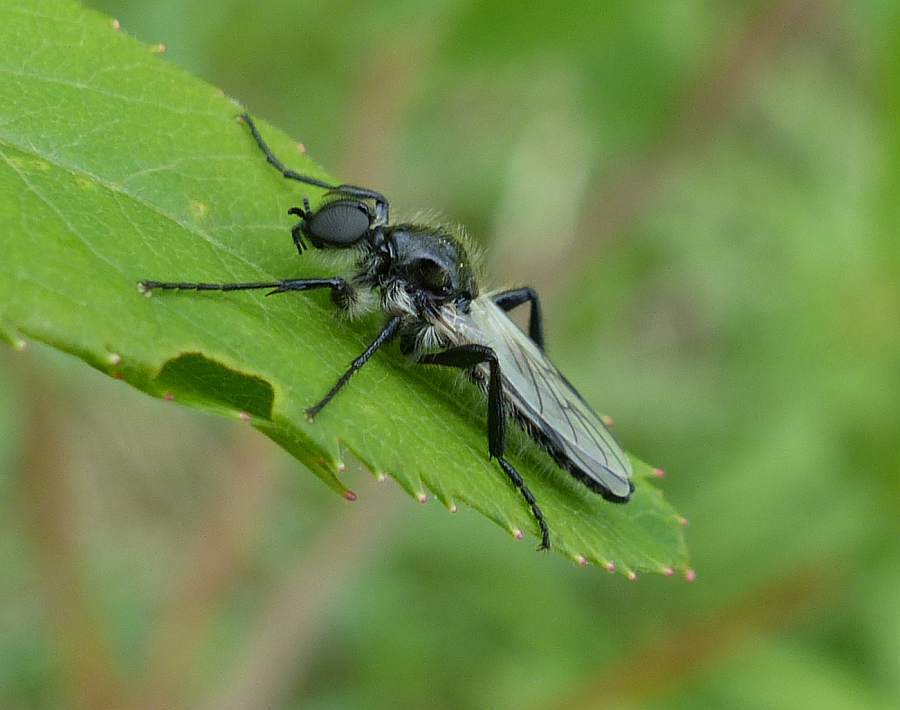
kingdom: Animalia
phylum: Arthropoda
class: Insecta
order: Diptera
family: Bibionidae
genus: Bibio
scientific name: Bibio albipennis
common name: White-winged march fly
